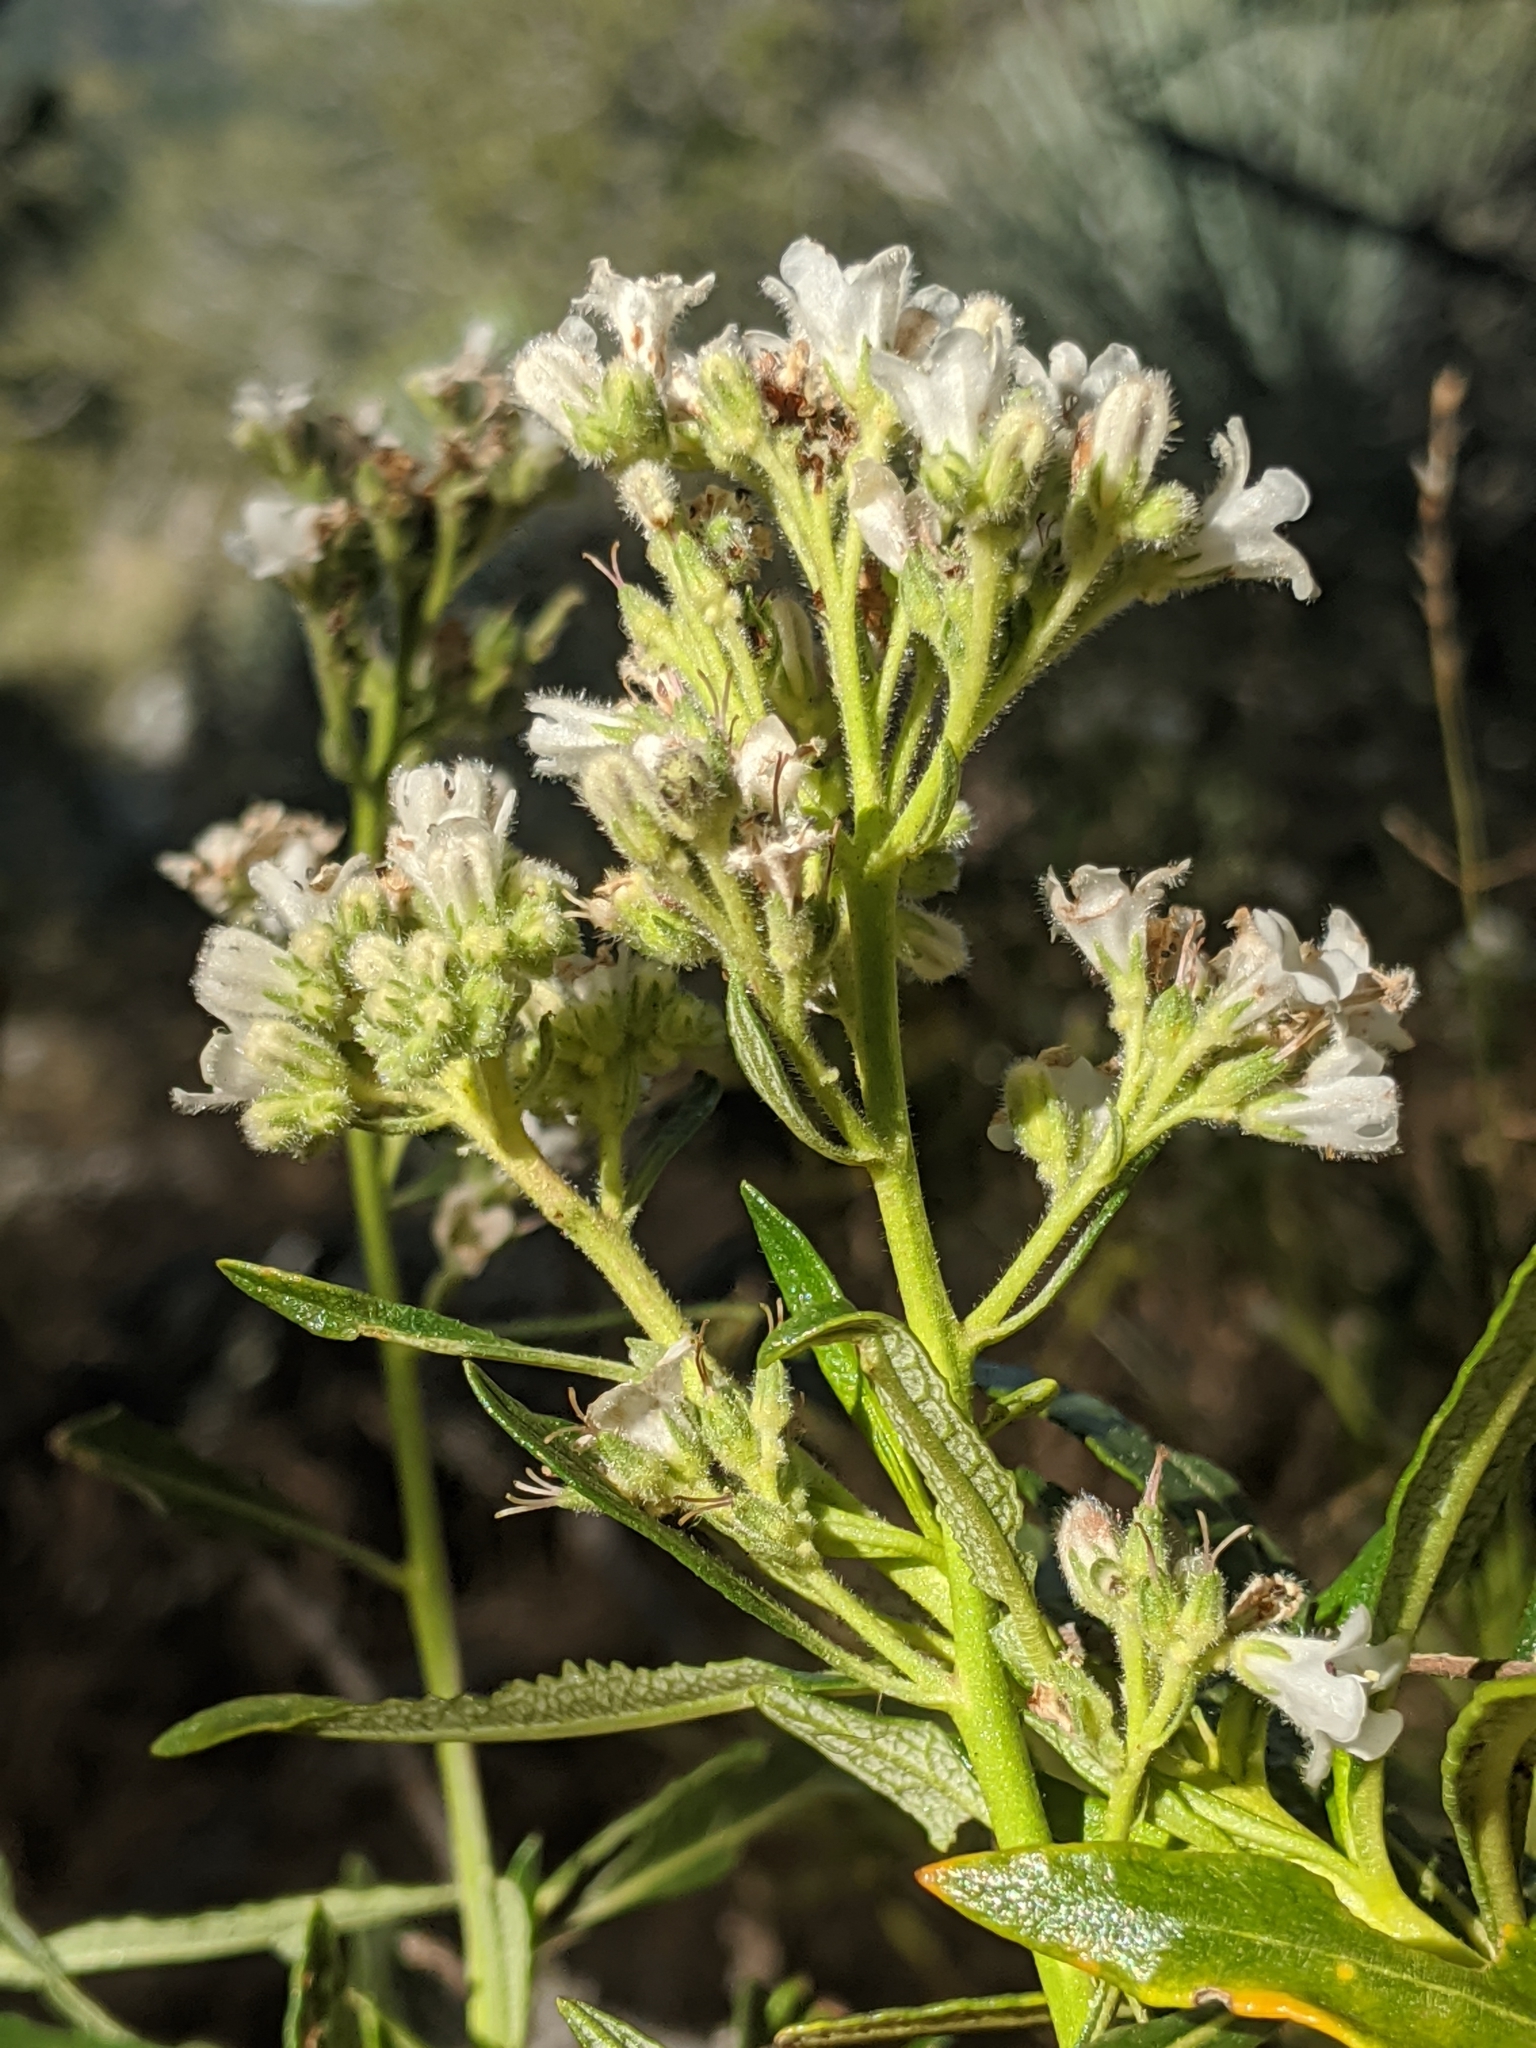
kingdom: Plantae
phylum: Tracheophyta
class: Magnoliopsida
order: Boraginales
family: Namaceae
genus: Eriodictyon
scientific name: Eriodictyon trichocalyx
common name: Hairy yerba-santa
